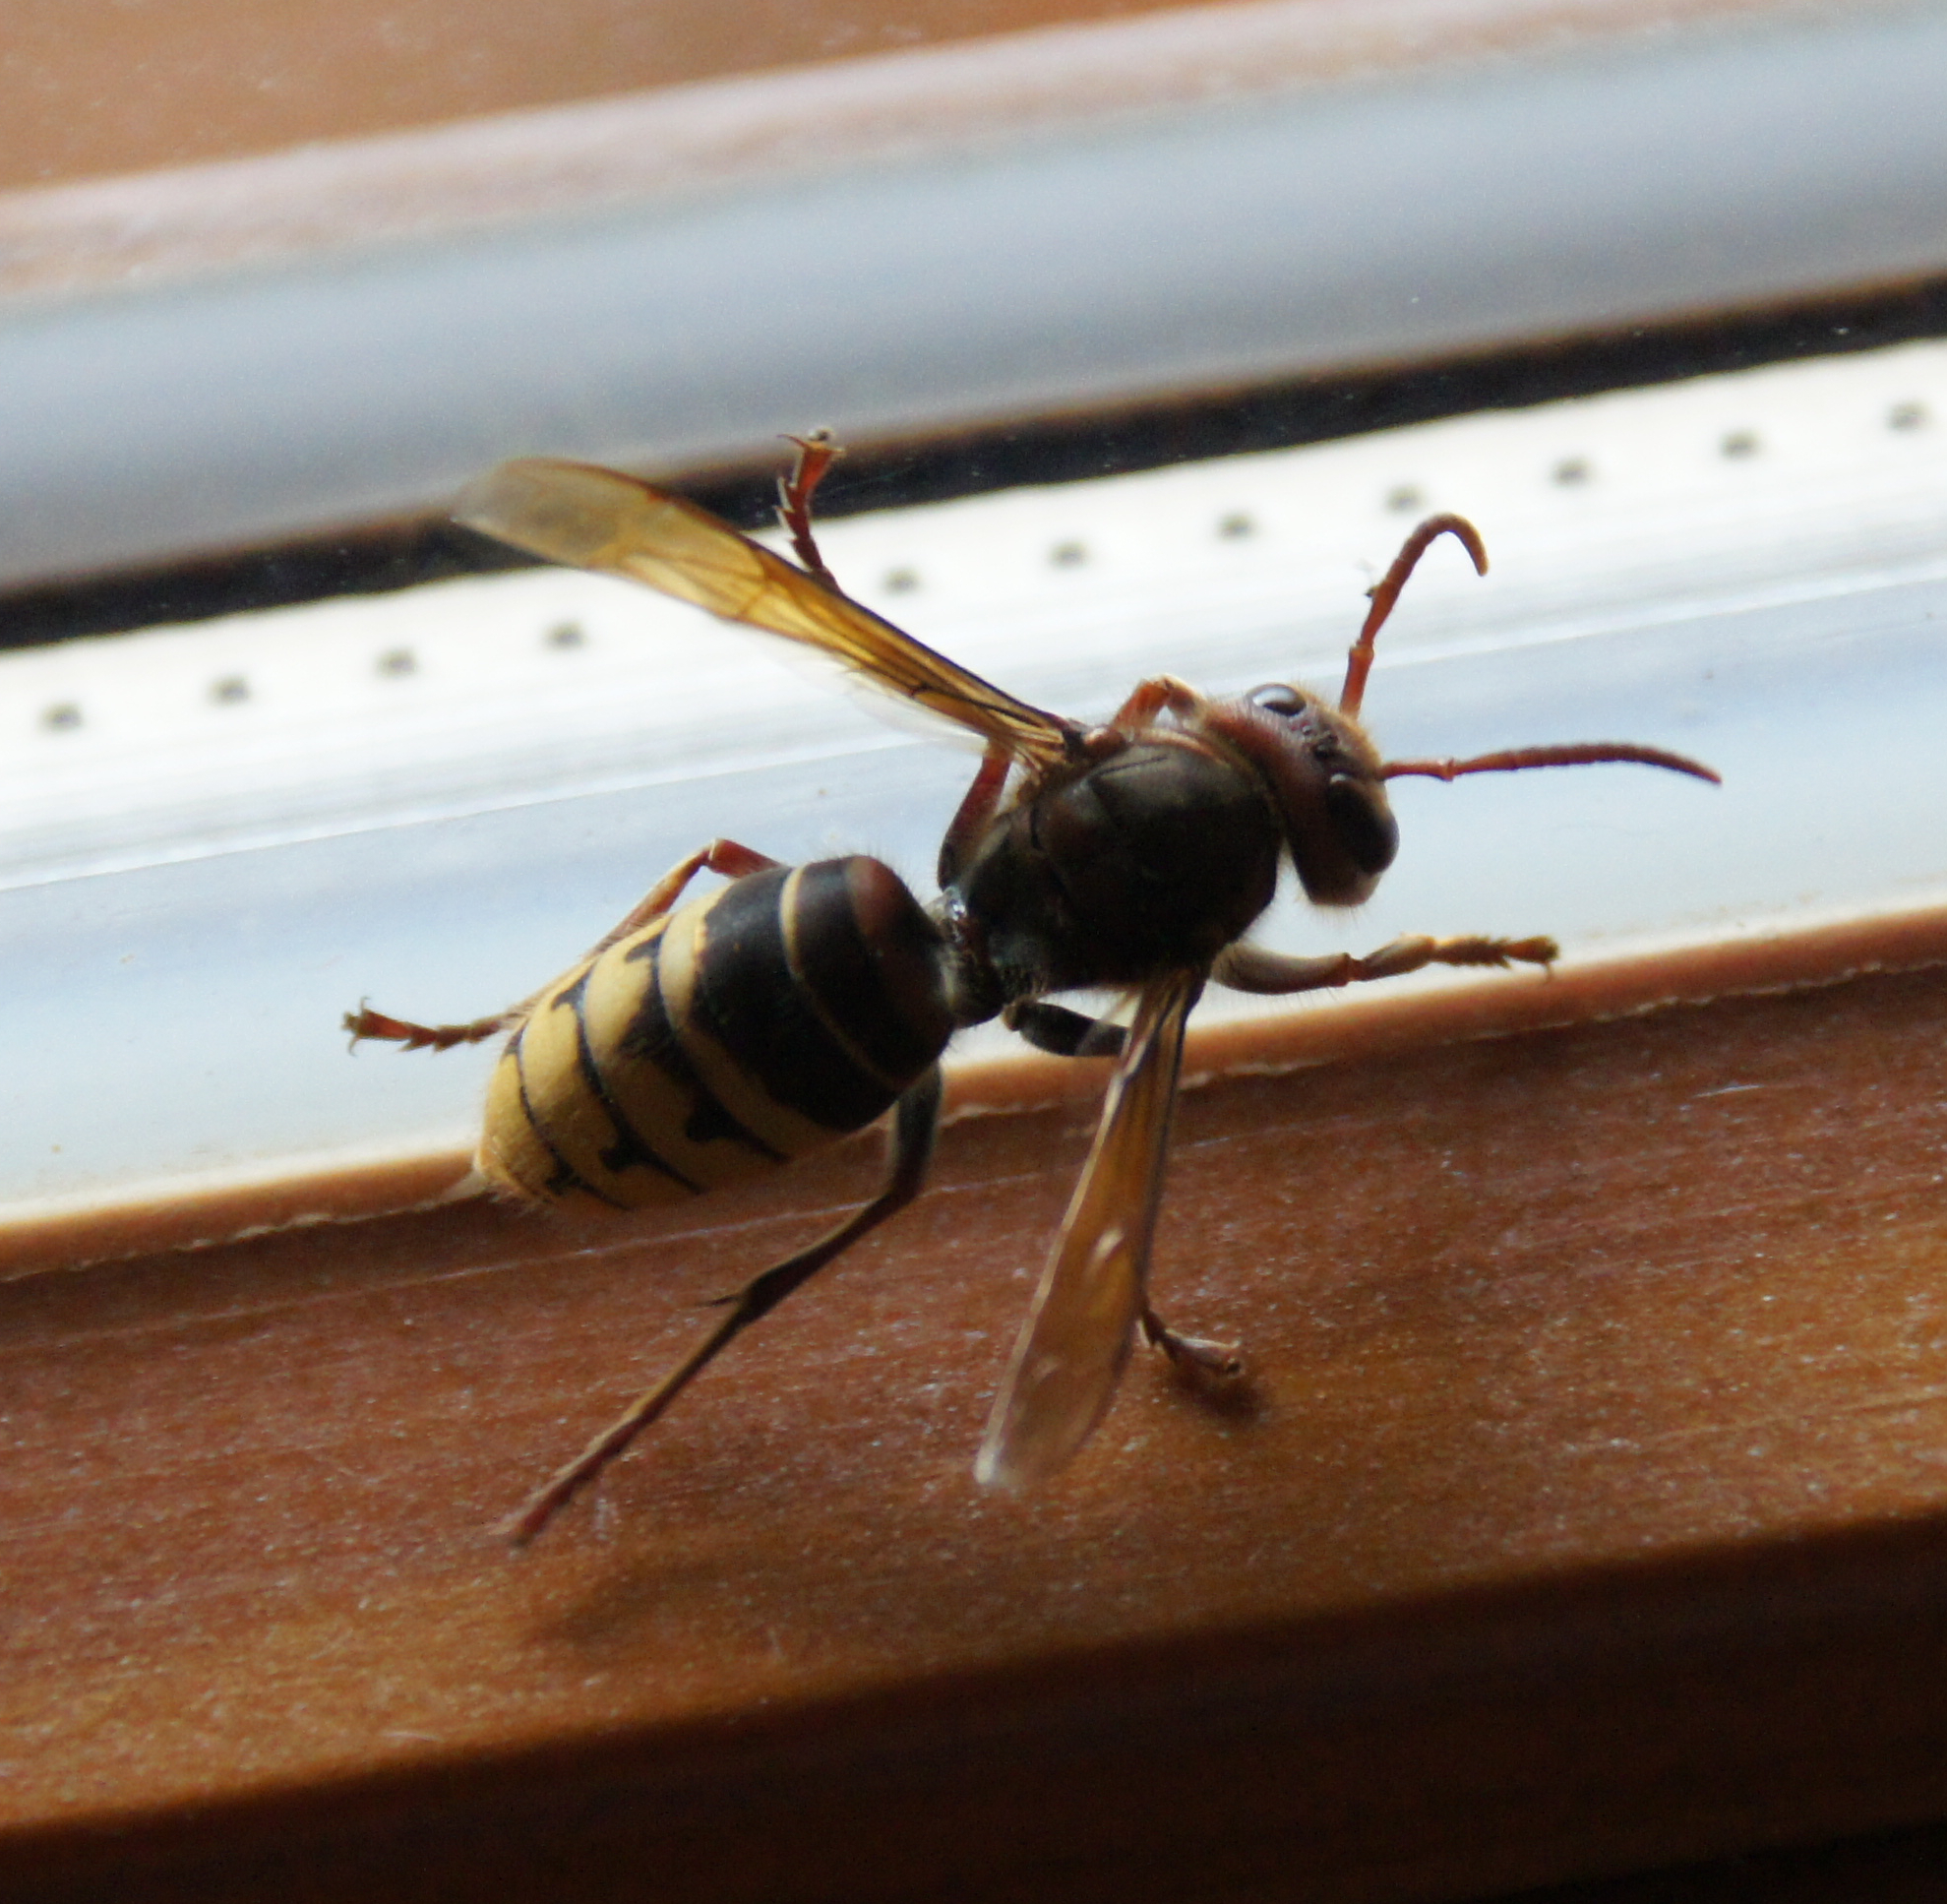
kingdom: Animalia
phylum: Arthropoda
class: Insecta
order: Hymenoptera
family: Vespidae
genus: Vespa
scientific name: Vespa crabro
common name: Hornet
